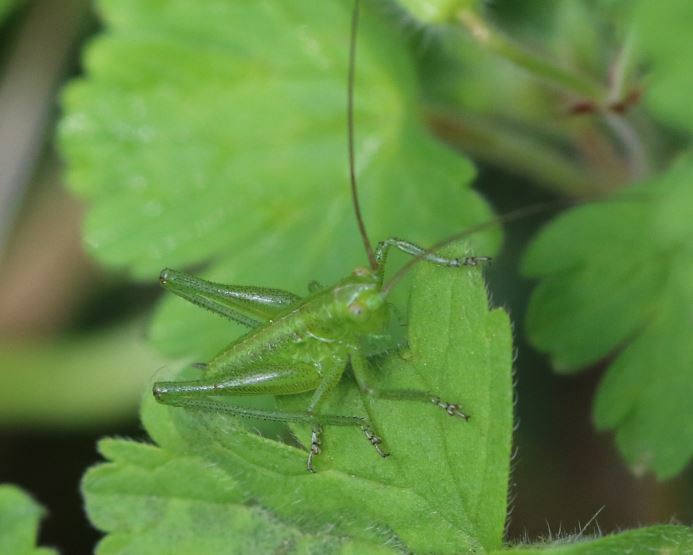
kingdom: Animalia
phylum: Arthropoda
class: Insecta
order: Orthoptera
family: Tettigoniidae
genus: Tettigonia
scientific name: Tettigonia viridissima
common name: Great green bush-cricket
